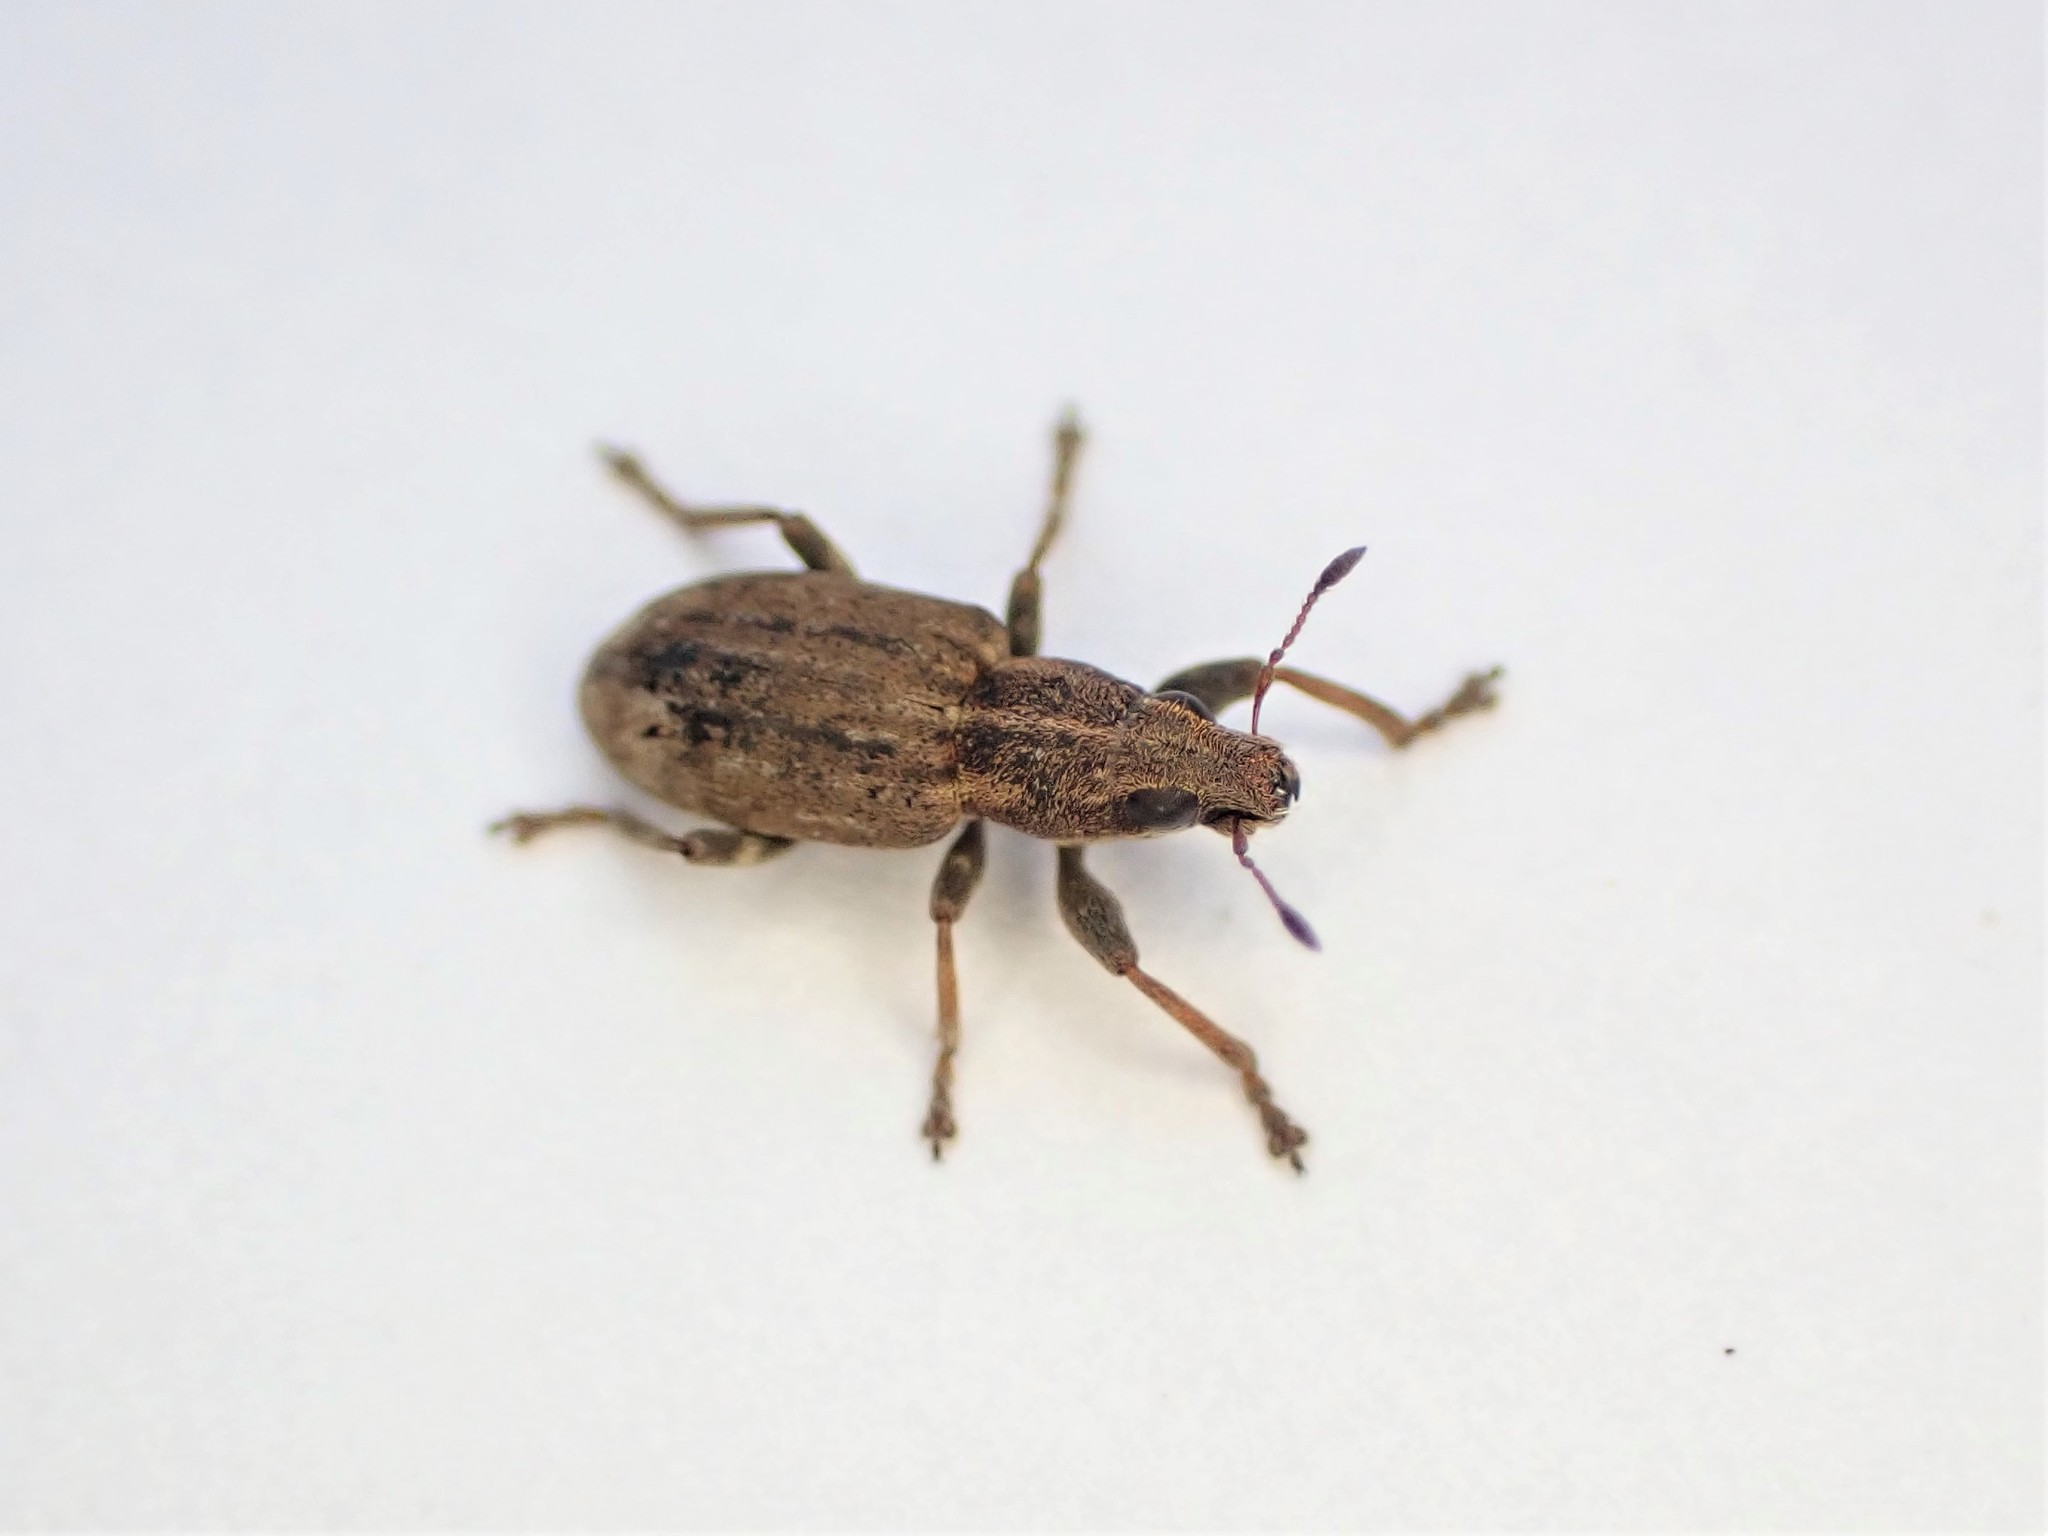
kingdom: Animalia
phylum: Arthropoda
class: Insecta
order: Coleoptera
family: Curculionidae
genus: Sitona
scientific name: Sitona obsoletus
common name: Weevil
